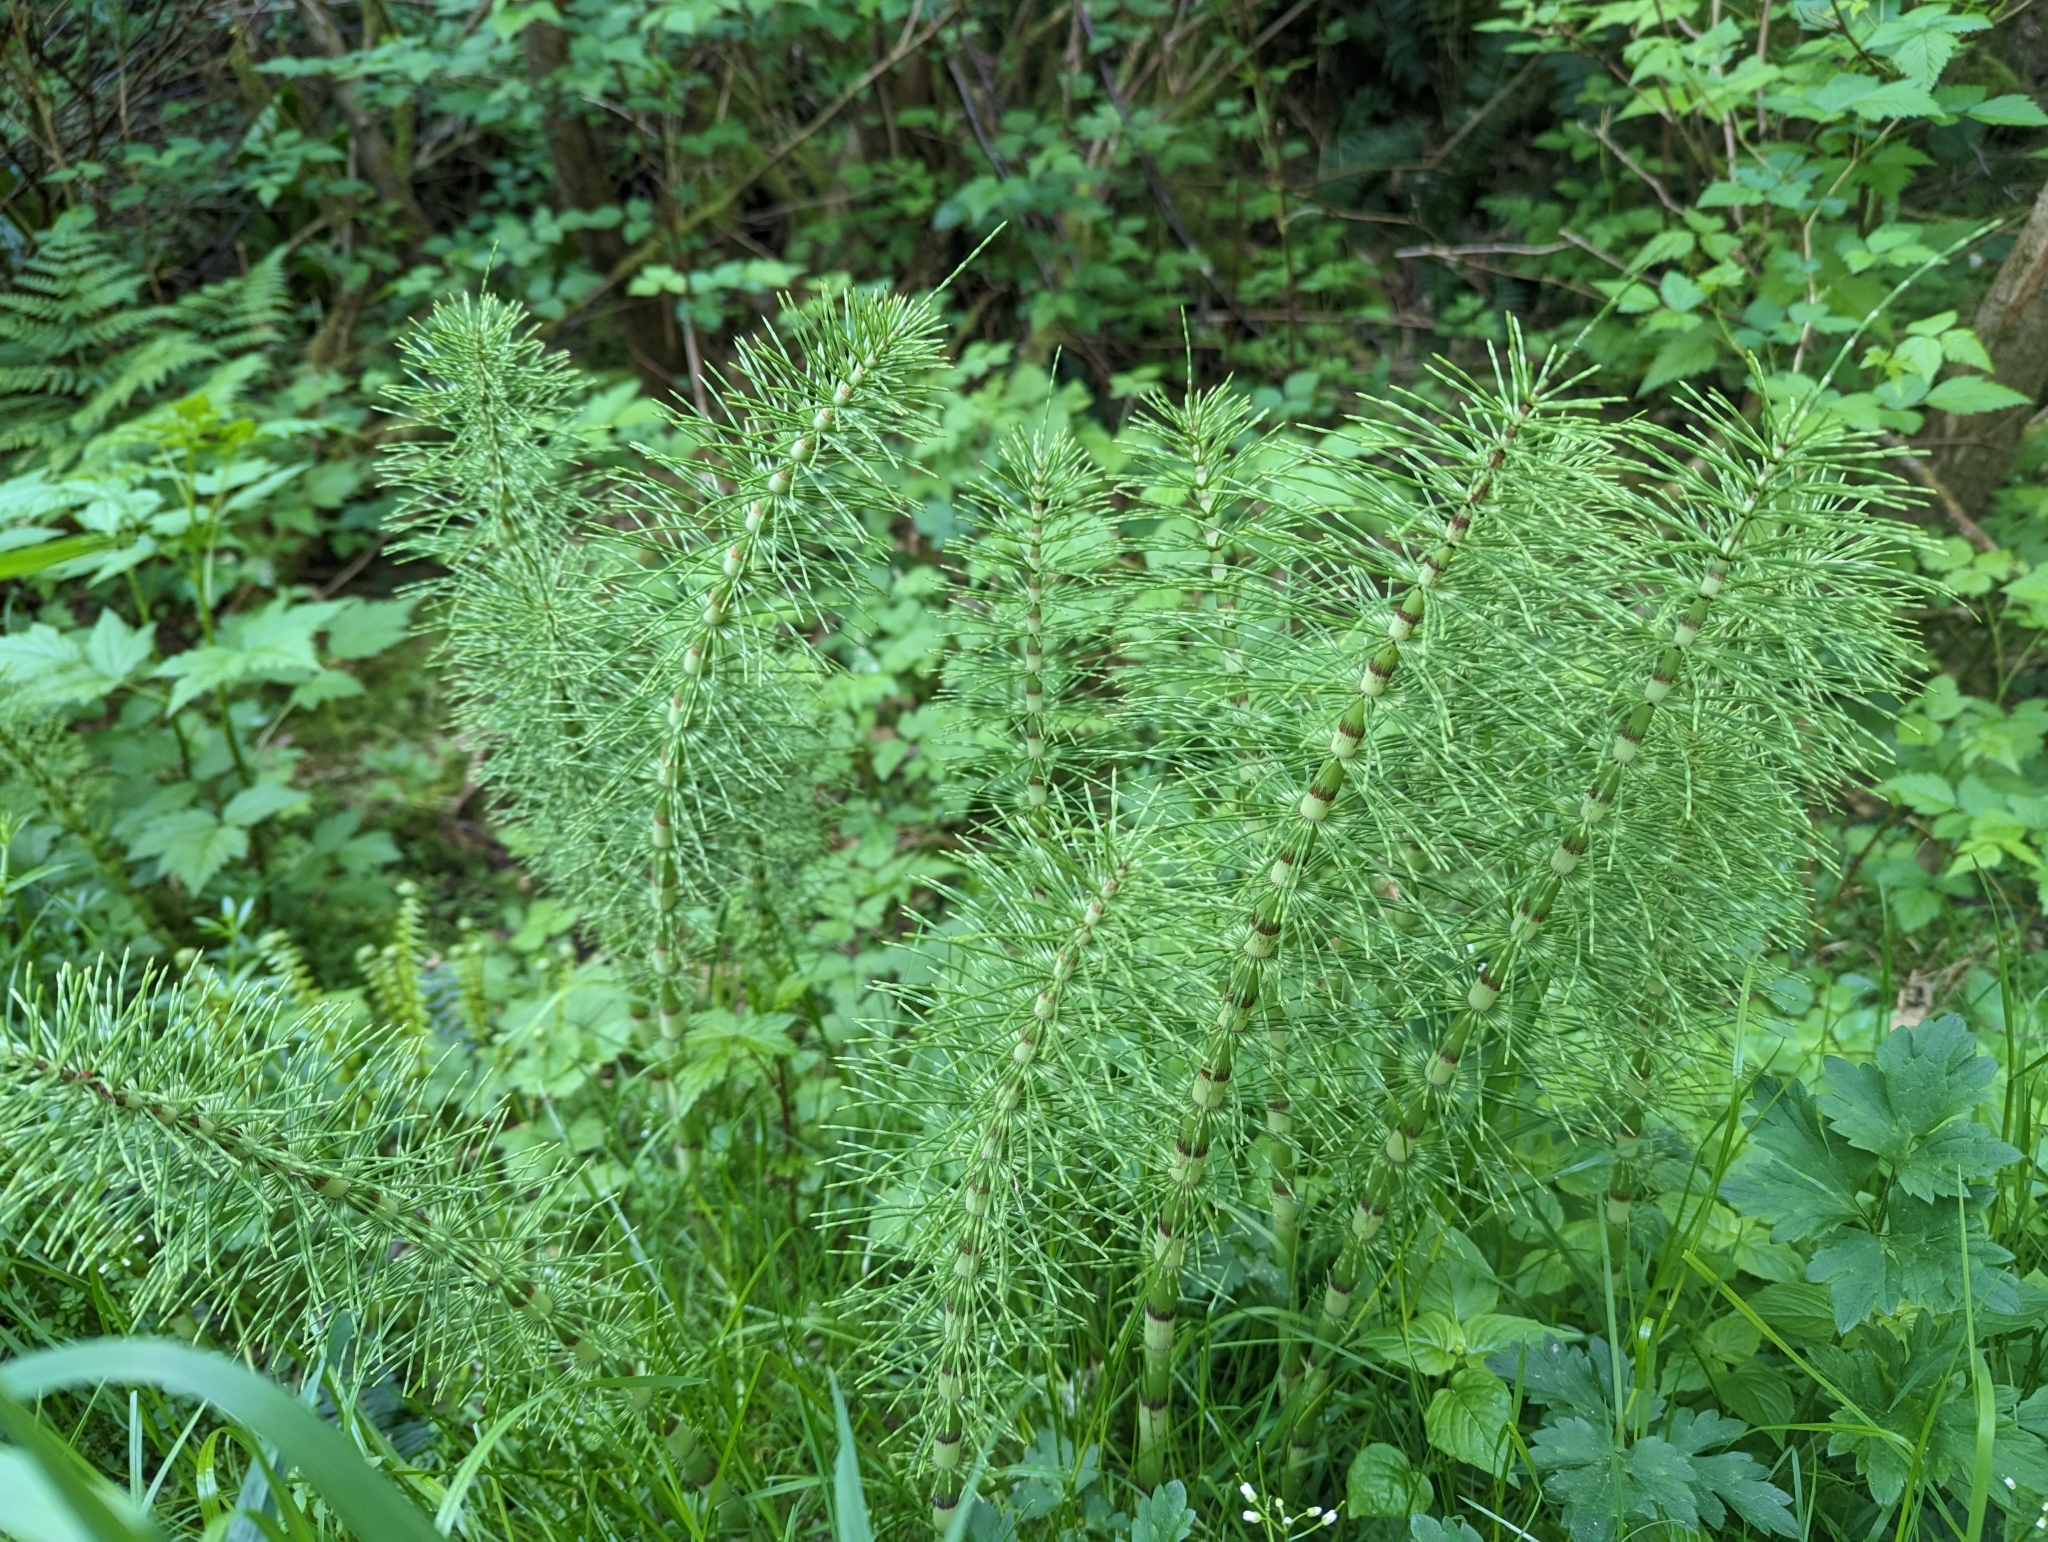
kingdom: Plantae
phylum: Tracheophyta
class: Polypodiopsida
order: Equisetales
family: Equisetaceae
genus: Equisetum
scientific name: Equisetum braunii
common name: Braun's horsetail
